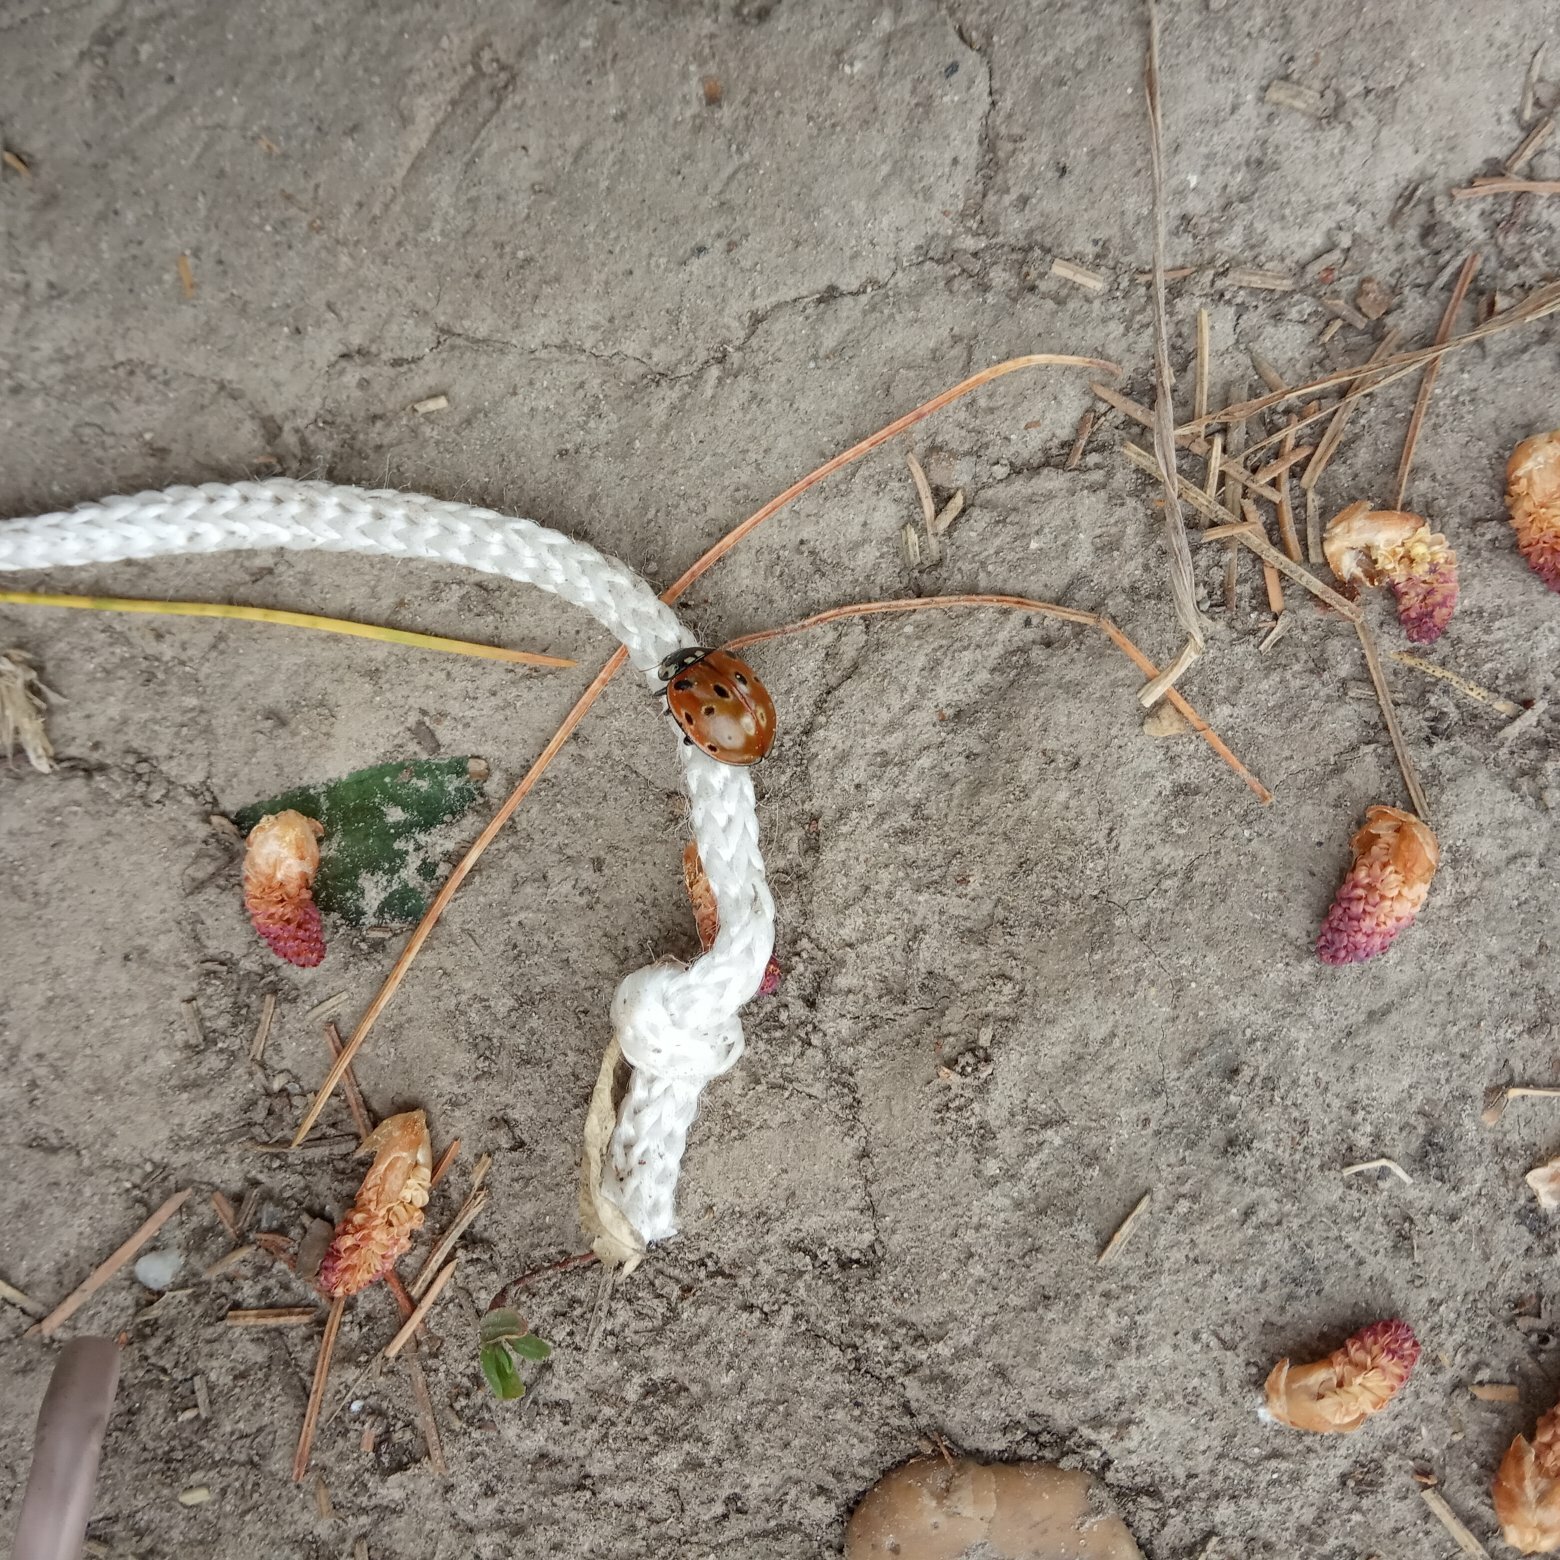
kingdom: Animalia
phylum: Arthropoda
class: Insecta
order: Coleoptera
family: Coccinellidae
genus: Anatis
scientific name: Anatis ocellata
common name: Eyed ladybird
